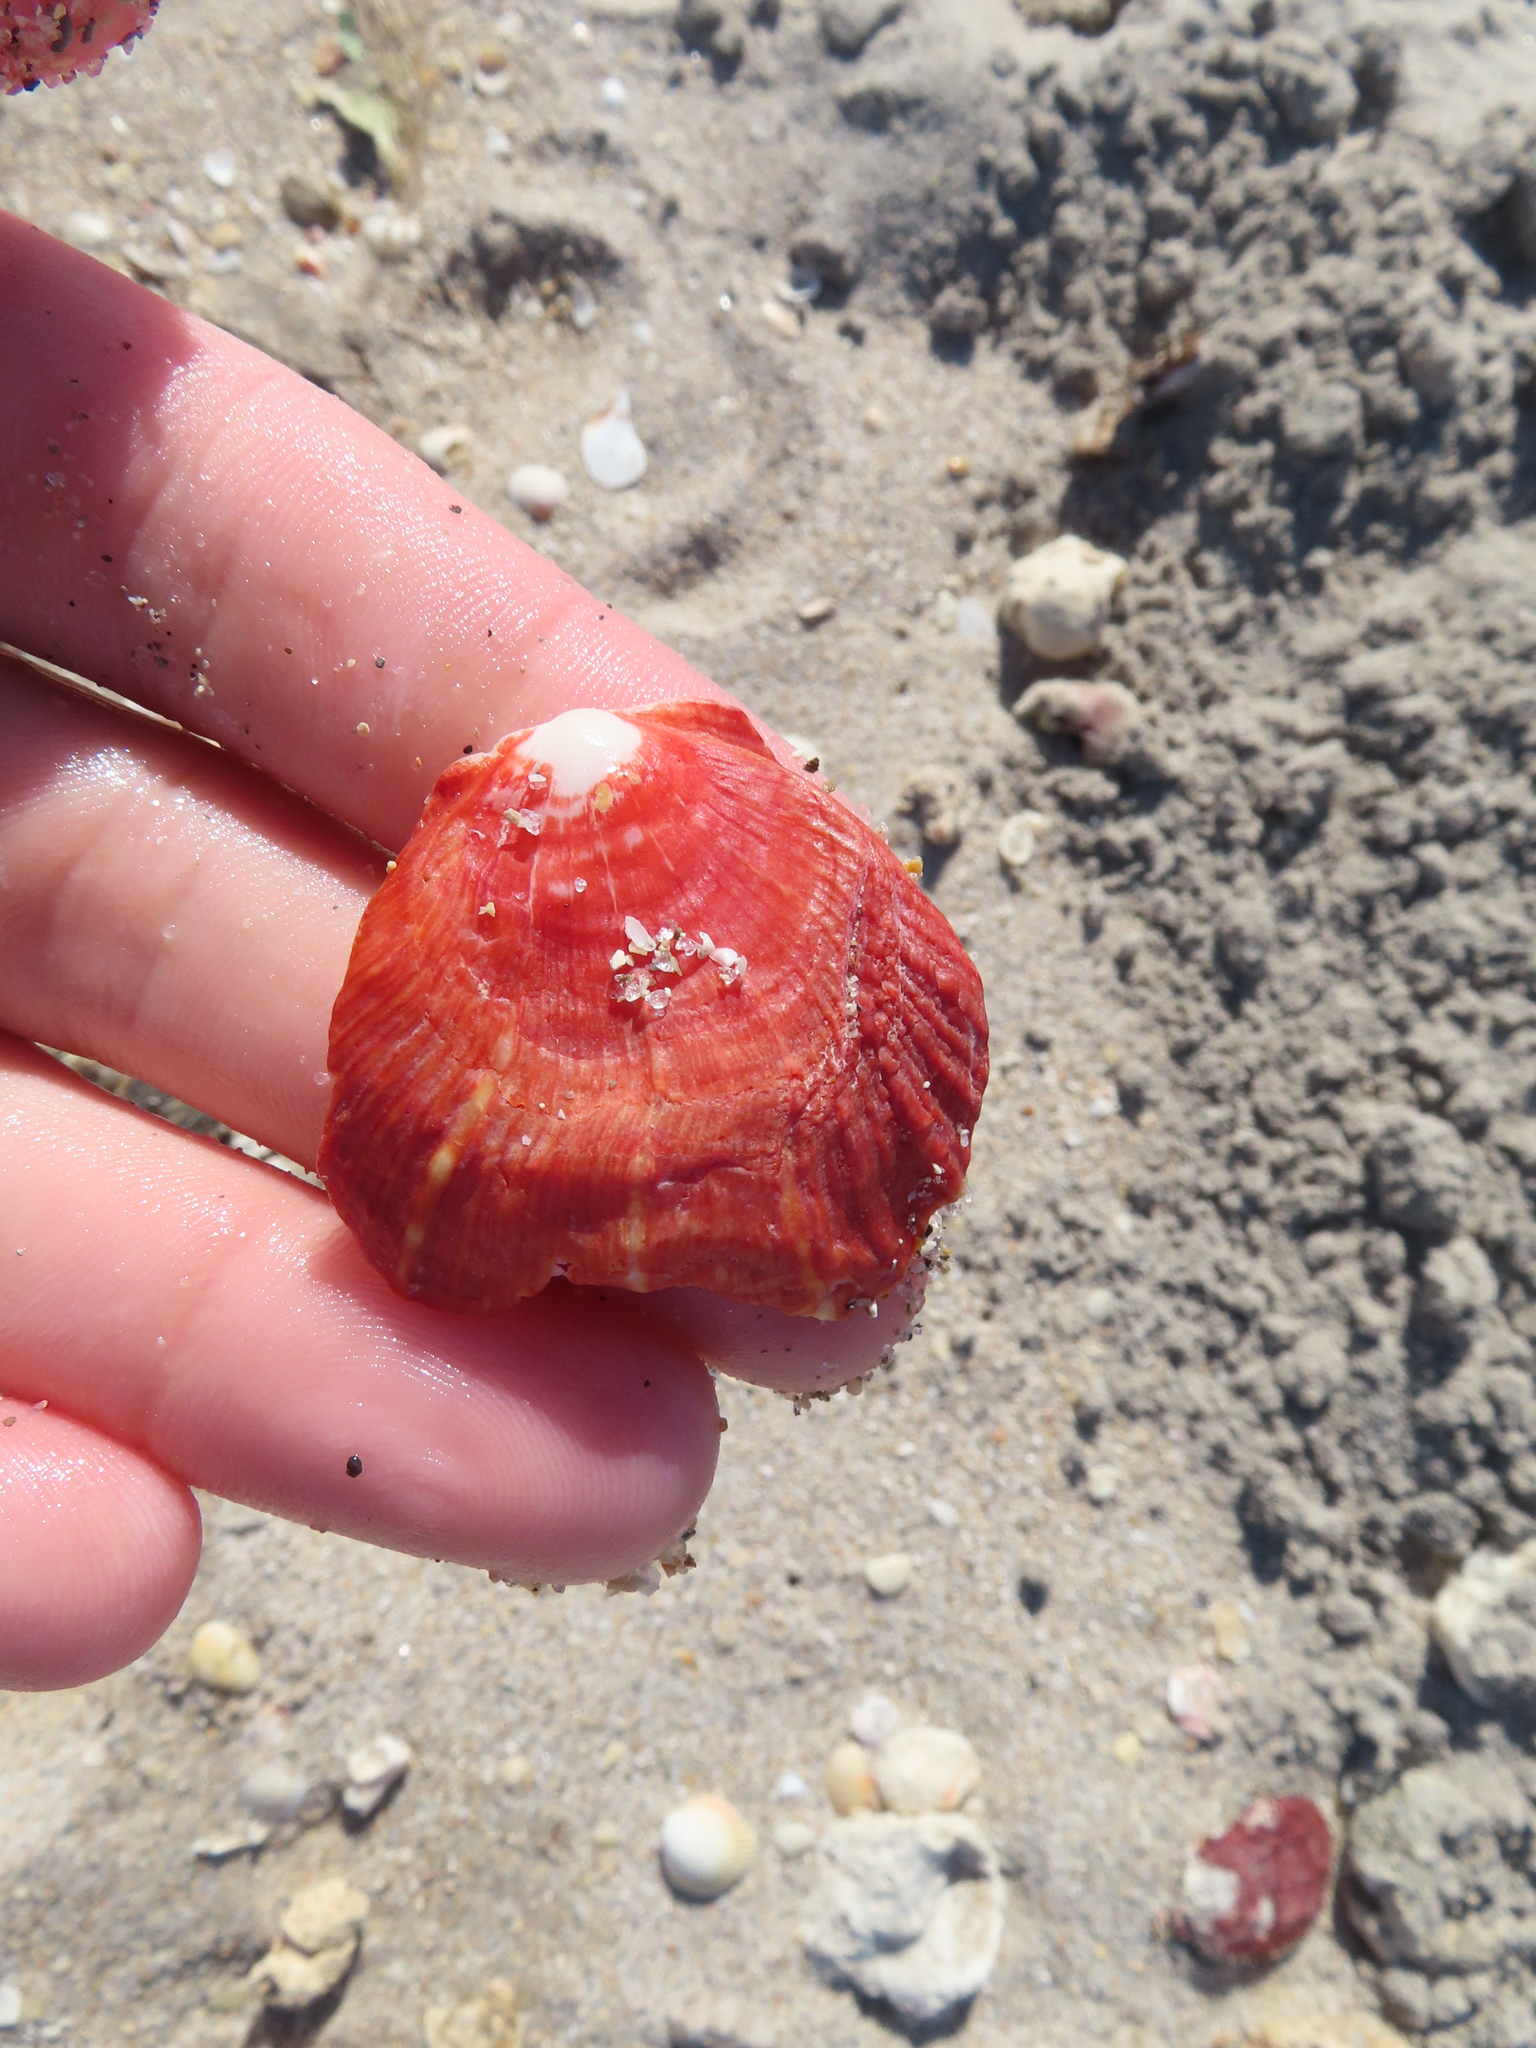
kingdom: Animalia
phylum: Mollusca
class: Bivalvia
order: Pectinida
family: Spondylidae
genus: Spondylus
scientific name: Spondylus tenuis
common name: Digitate thorny oyster
